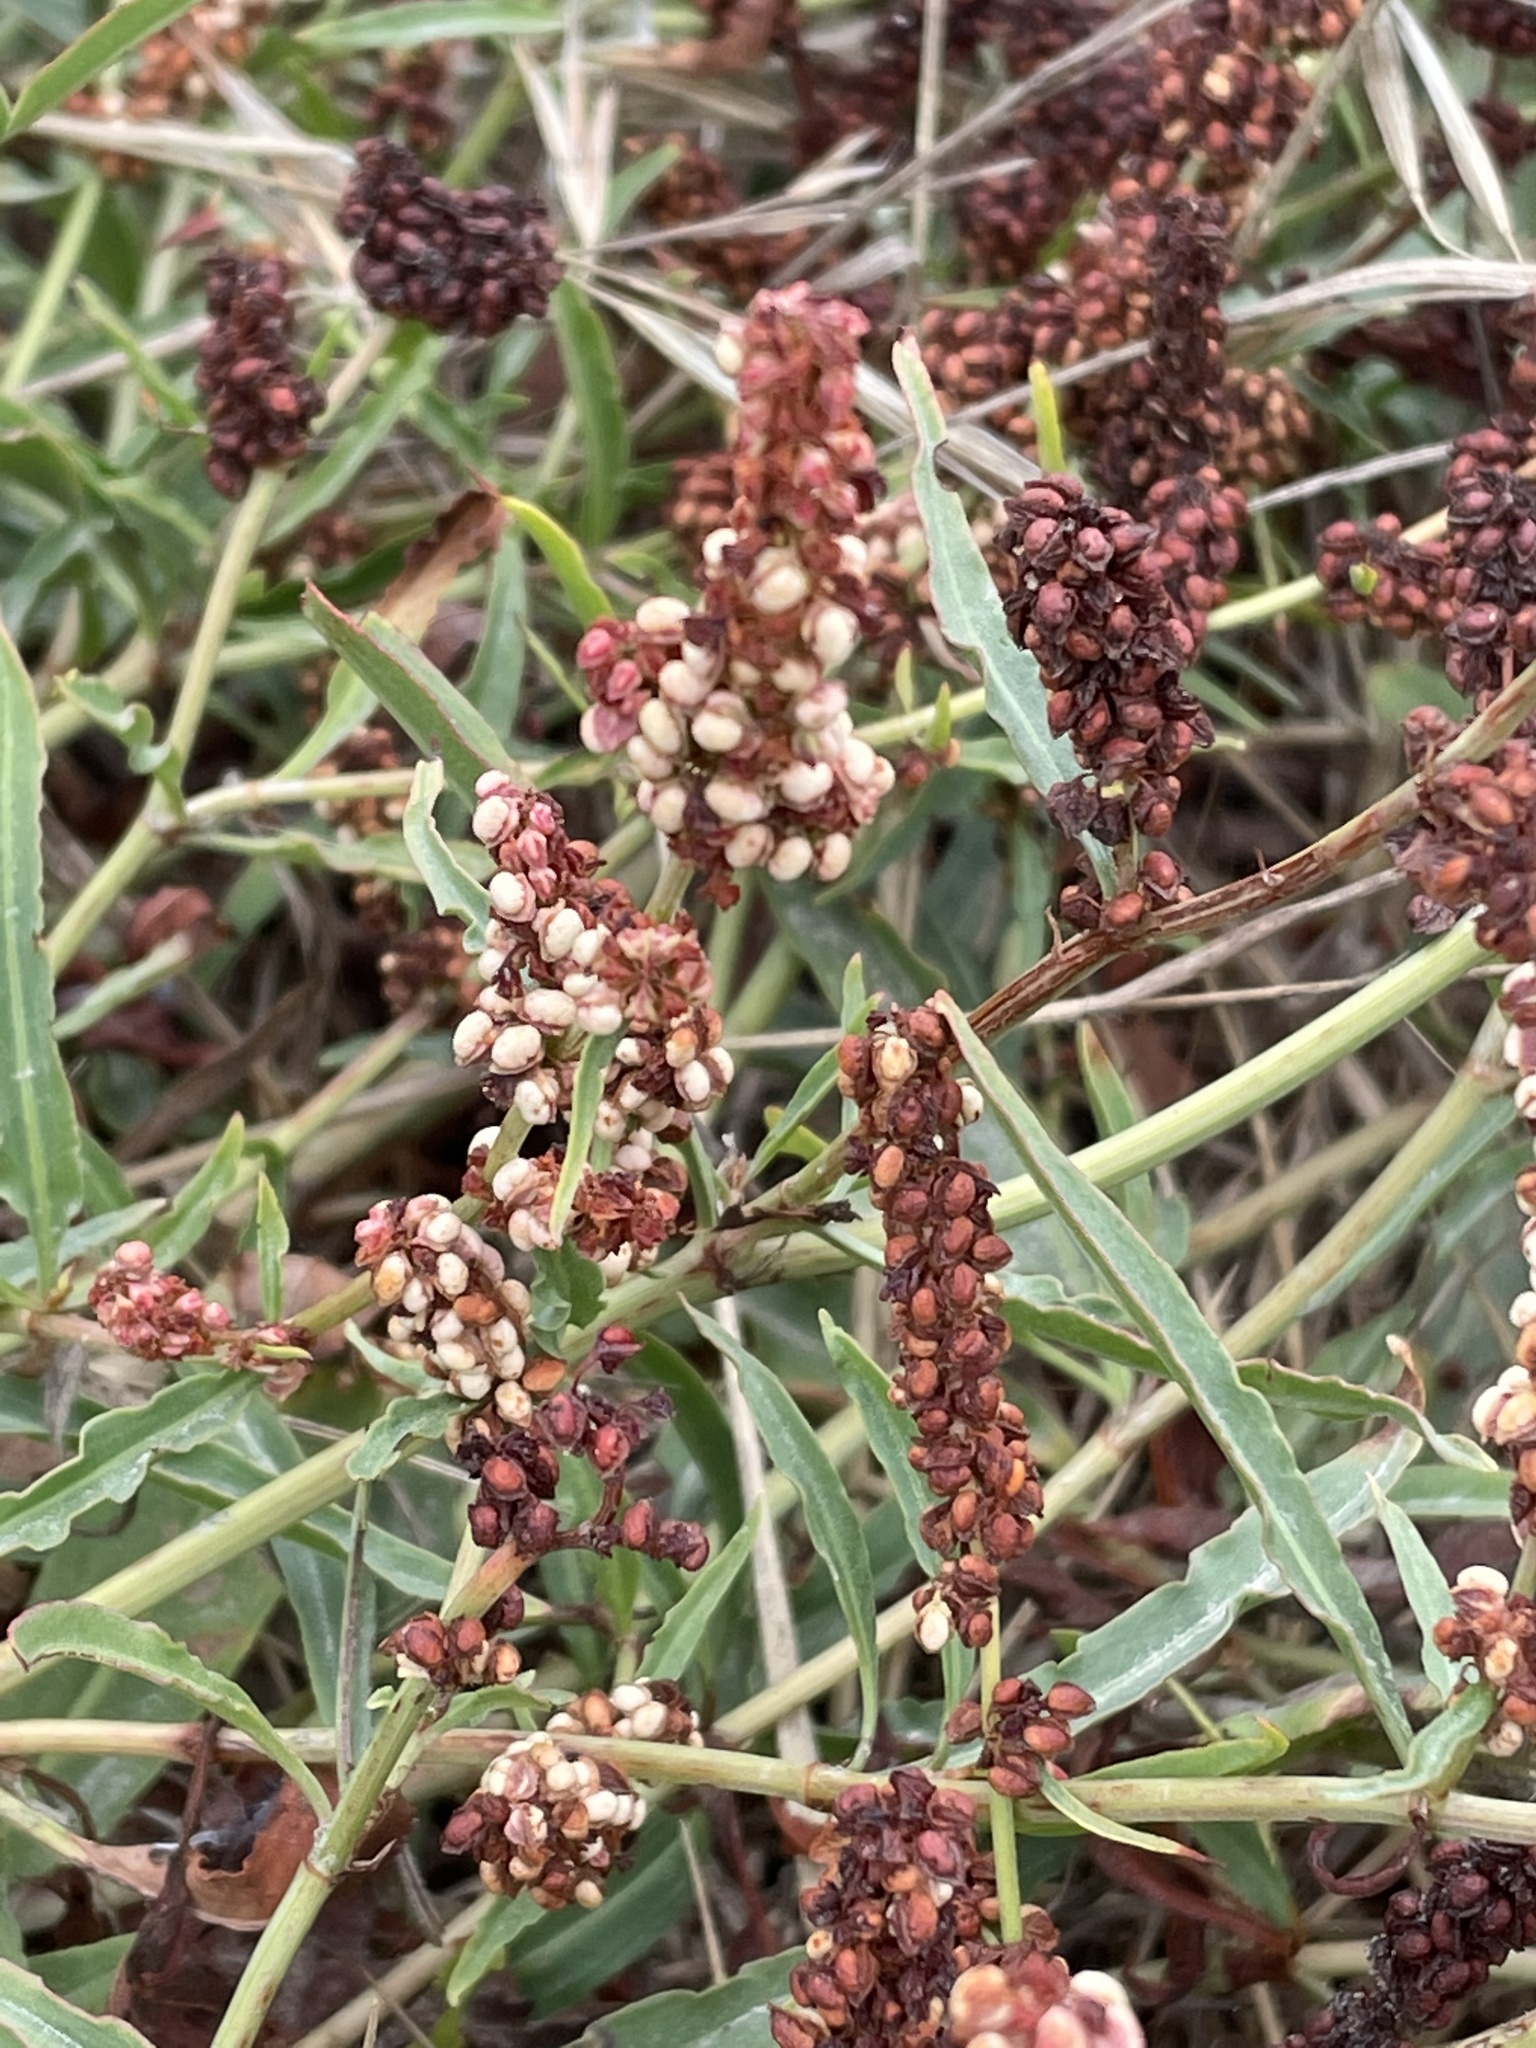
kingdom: Plantae
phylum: Tracheophyta
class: Magnoliopsida
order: Caryophyllales
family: Polygonaceae
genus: Rumex
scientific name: Rumex salicifolius
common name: Willow-leaved dock
